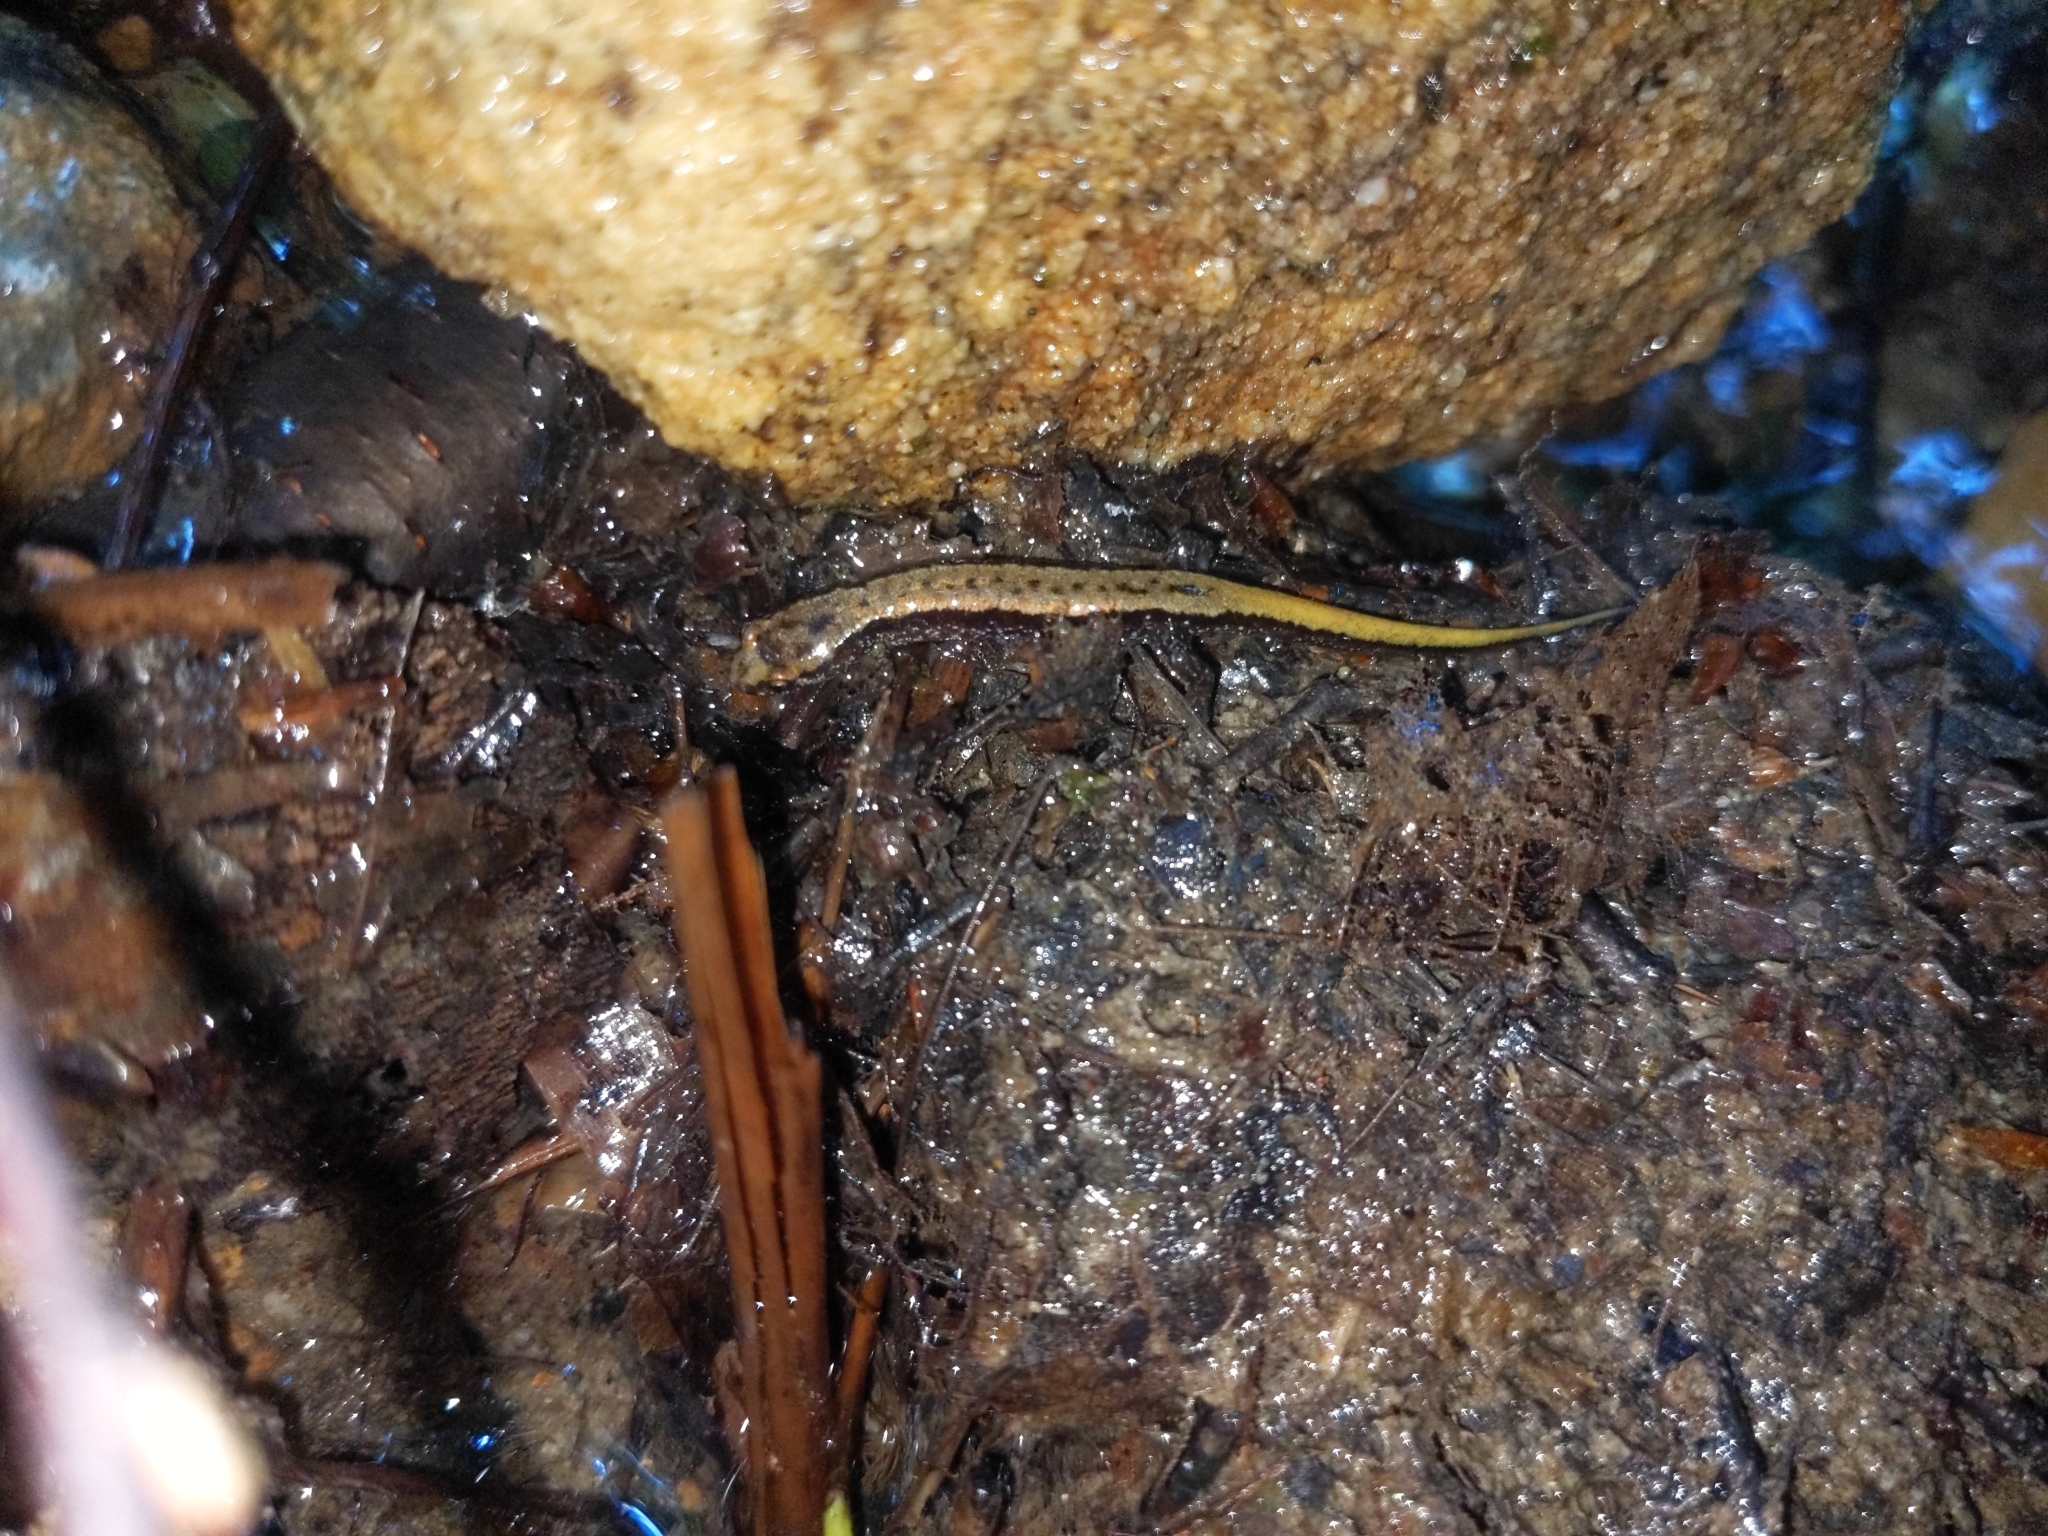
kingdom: Animalia
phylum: Chordata
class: Amphibia
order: Caudata
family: Plethodontidae
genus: Desmognathus
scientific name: Desmognathus ochrophaeus
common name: Allegheny mountain dusky salamander
